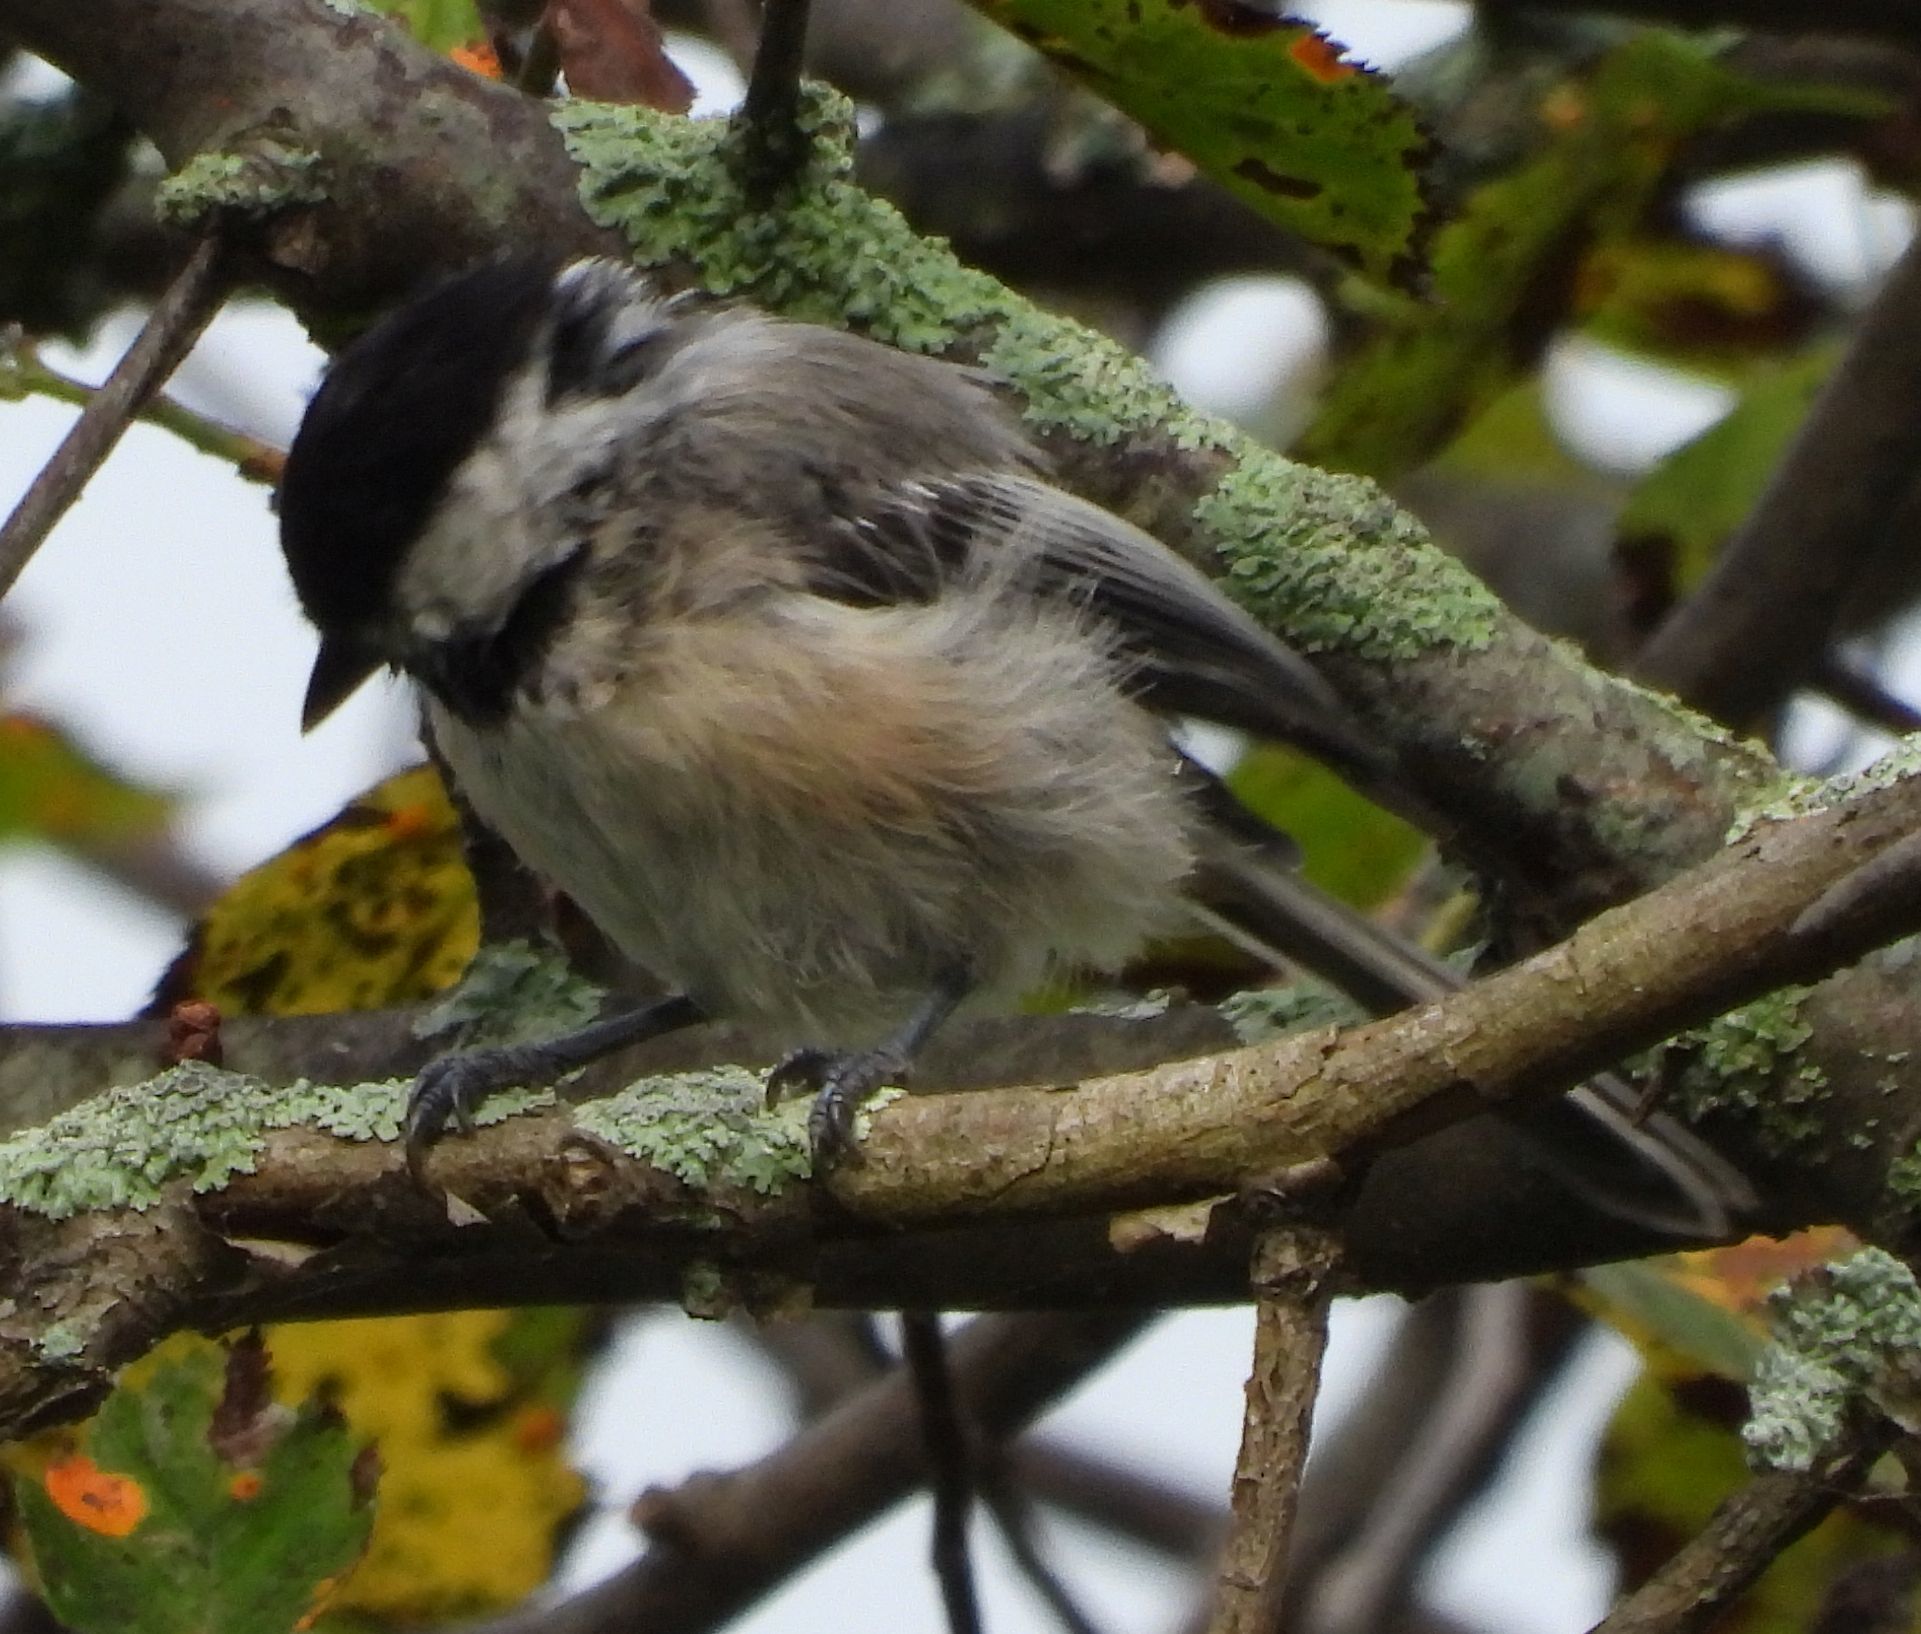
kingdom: Animalia
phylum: Chordata
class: Aves
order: Passeriformes
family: Paridae
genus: Poecile
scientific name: Poecile atricapillus
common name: Black-capped chickadee
